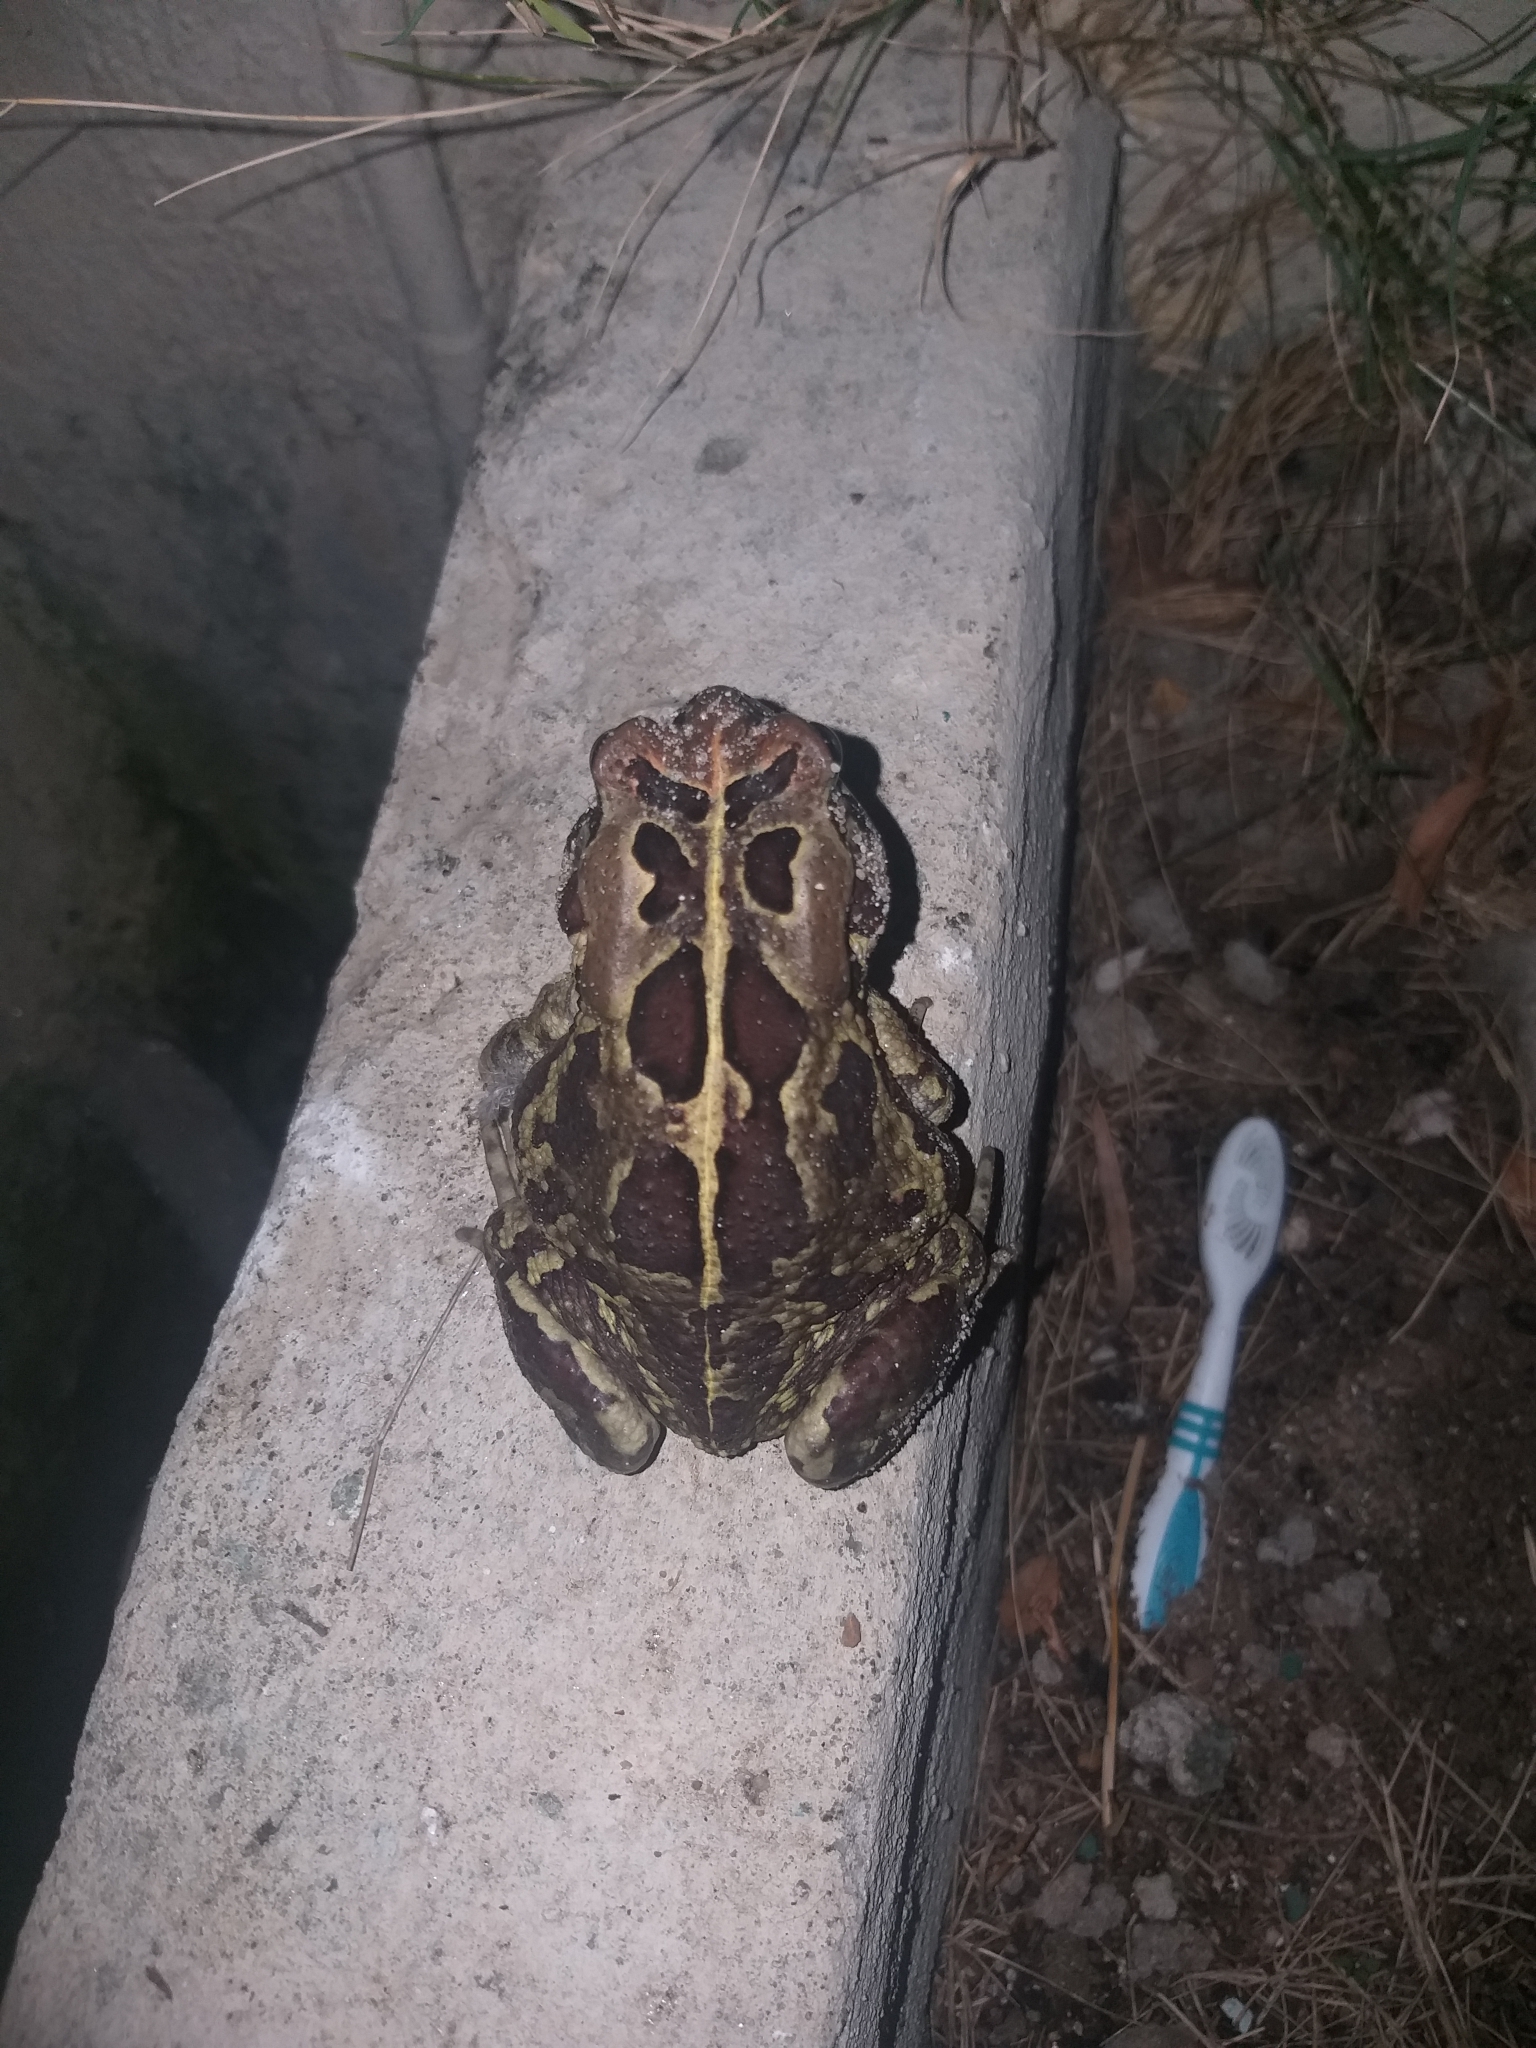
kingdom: Animalia
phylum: Chordata
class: Amphibia
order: Anura
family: Bufonidae
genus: Sclerophrys
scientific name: Sclerophrys pantherina
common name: Panther toad
